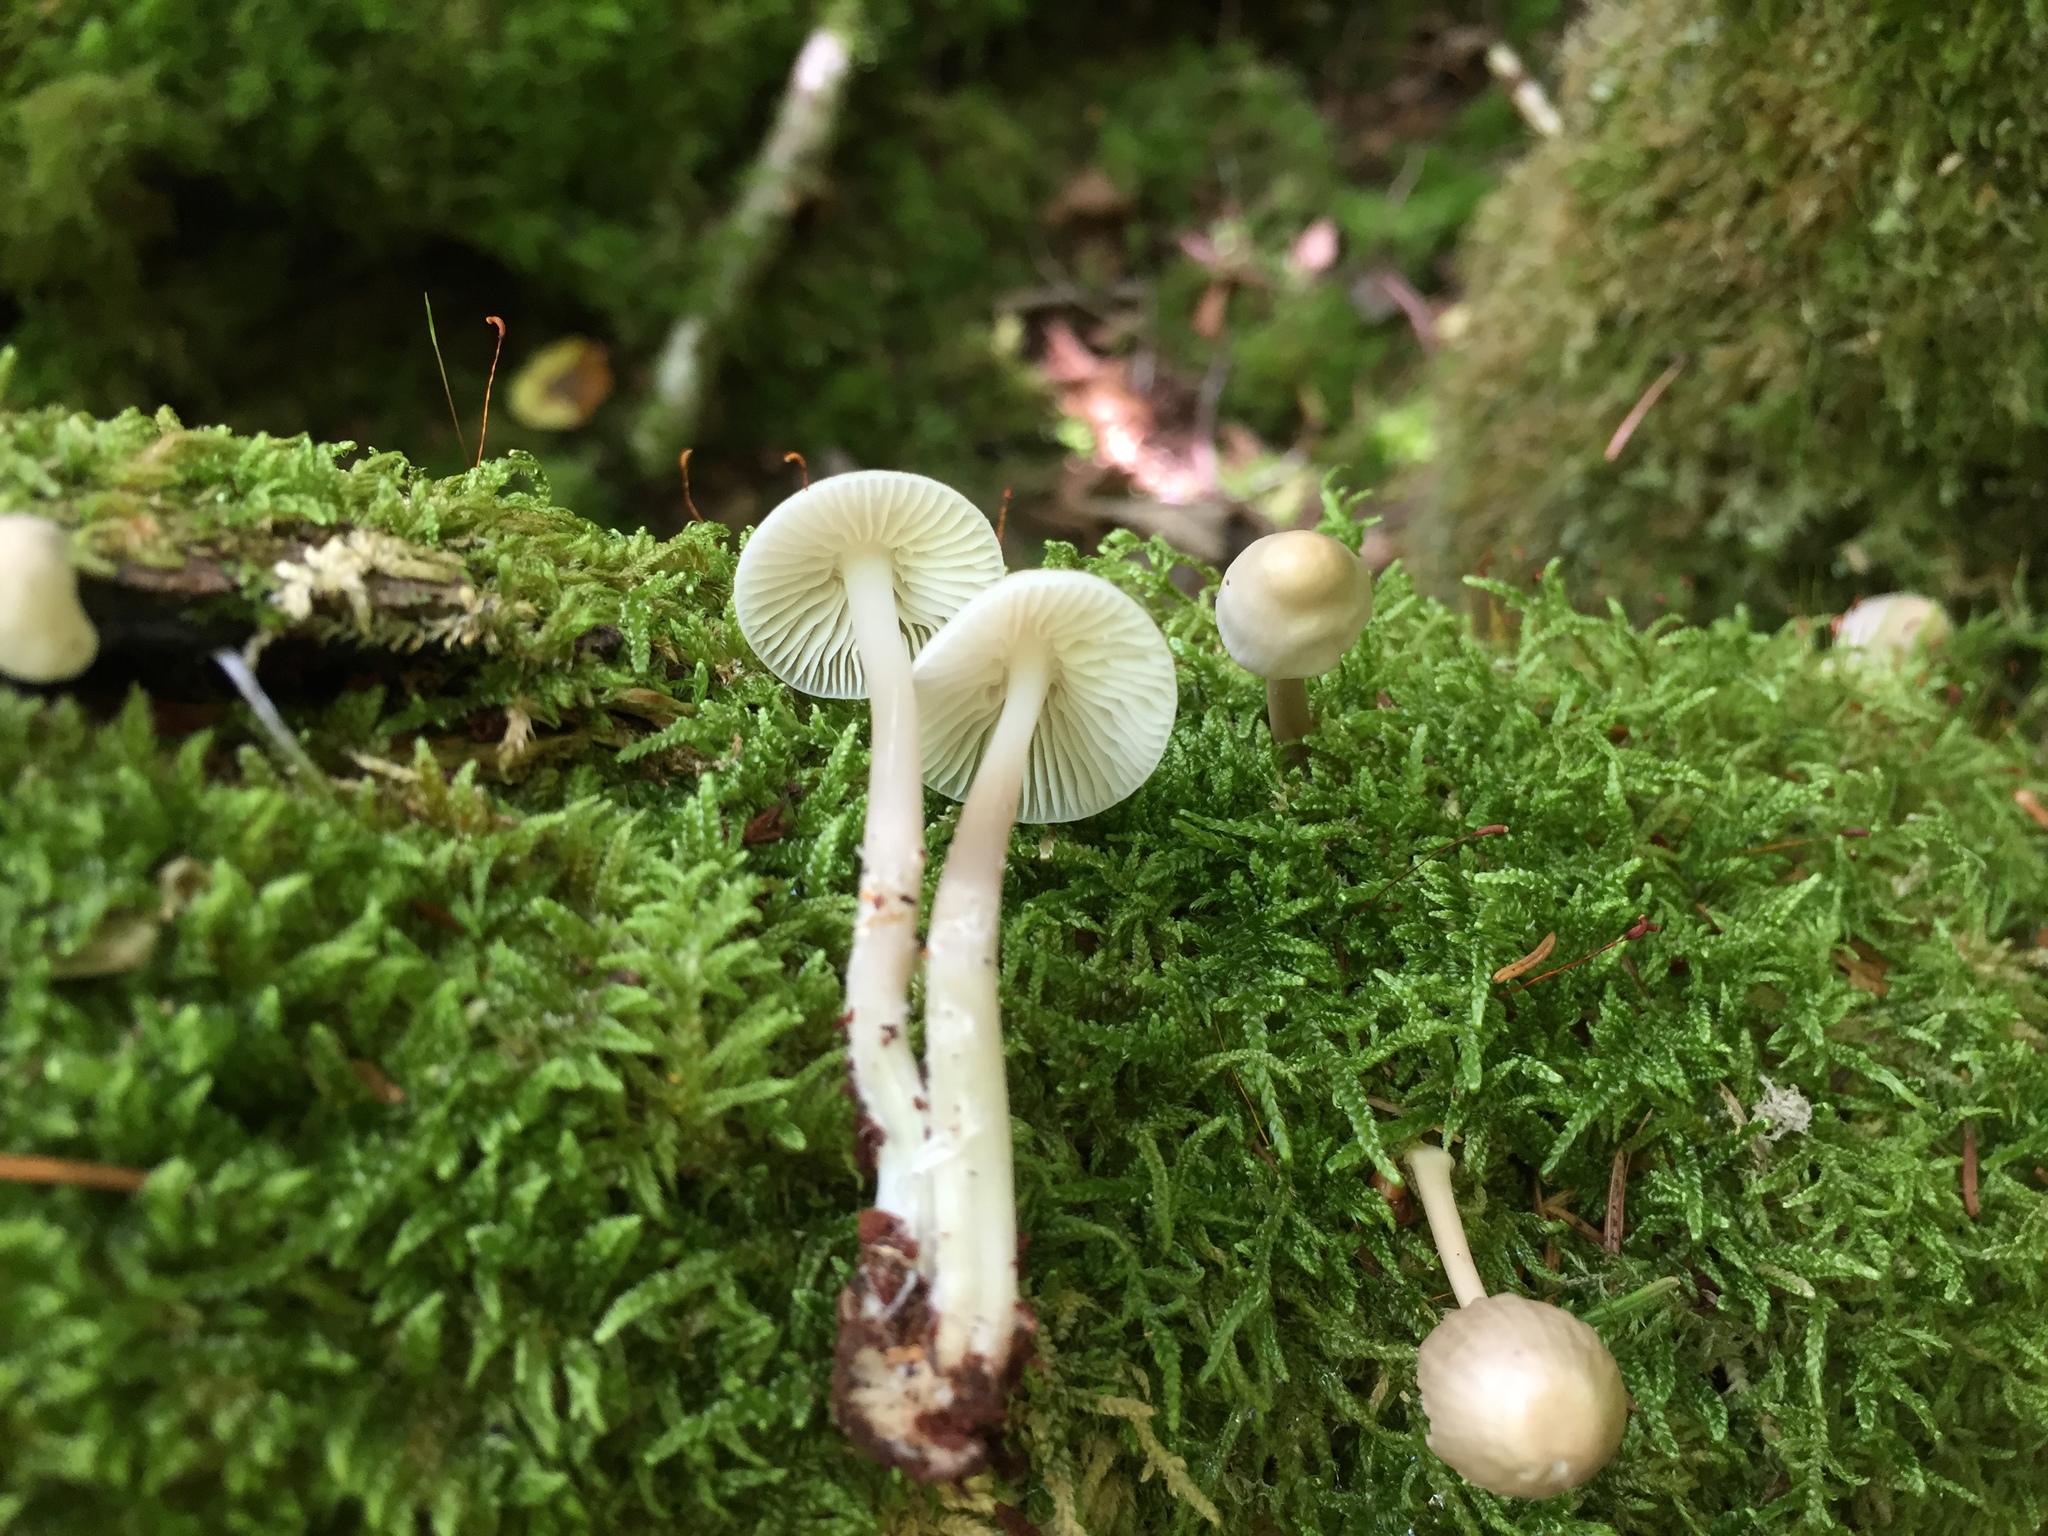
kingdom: Fungi
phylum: Basidiomycota
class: Agaricomycetes
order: Agaricales
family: Mycenaceae
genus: Mycena
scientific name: Mycena galericulata
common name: Bonnet mycena
